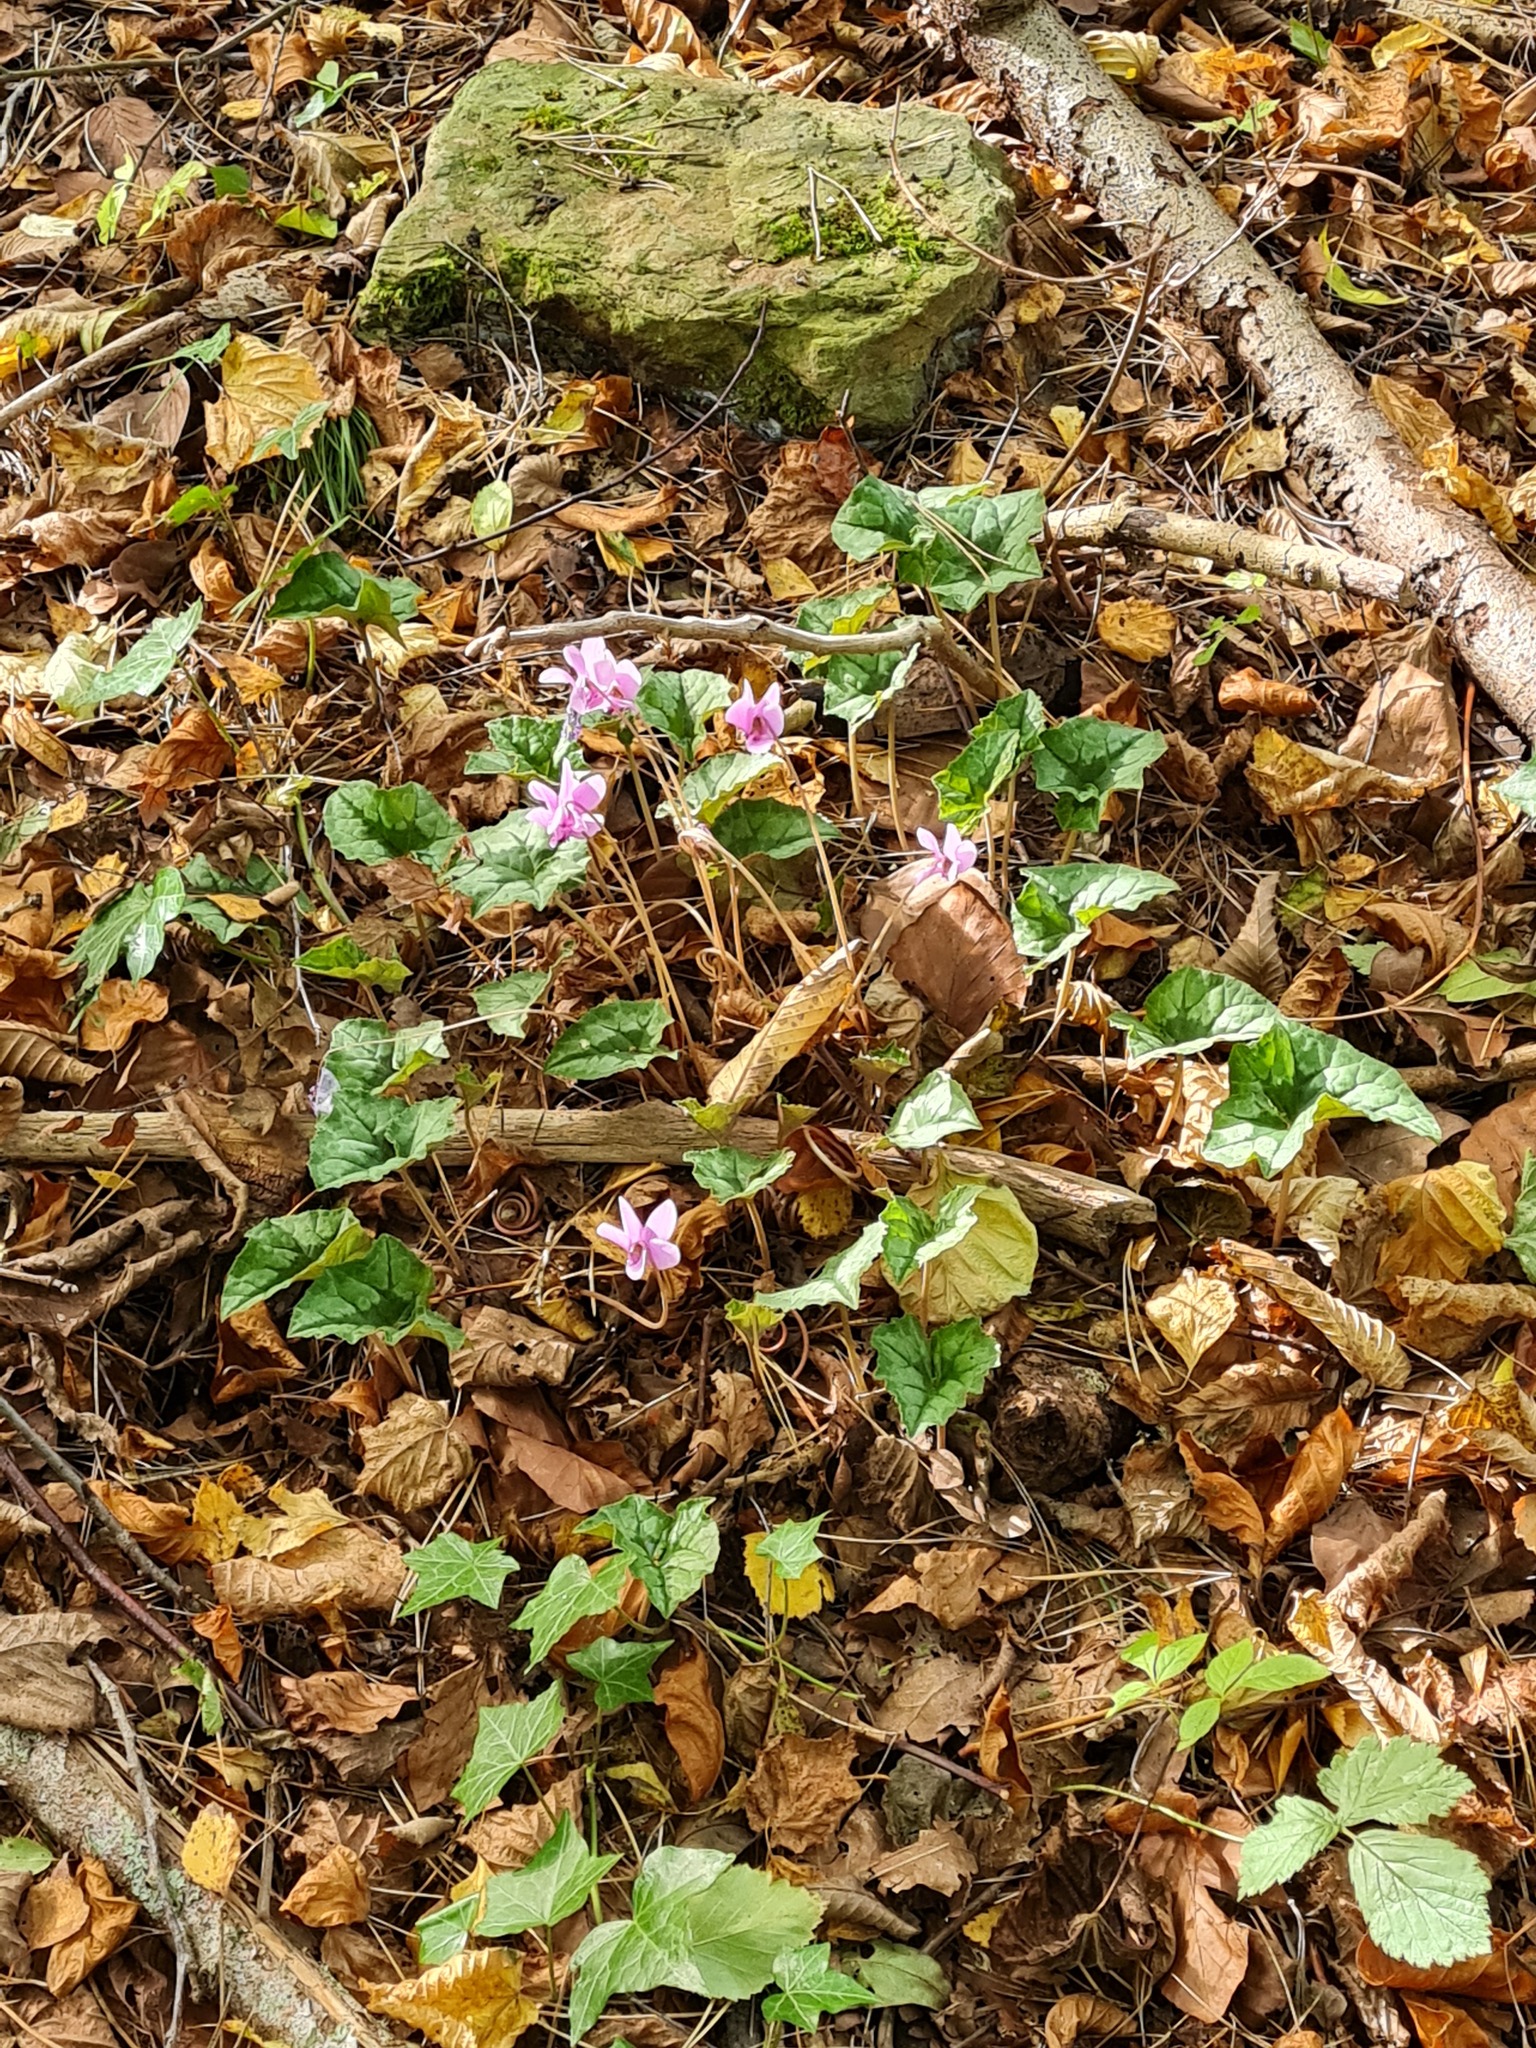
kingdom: Plantae
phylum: Tracheophyta
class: Magnoliopsida
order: Ericales
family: Primulaceae
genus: Cyclamen
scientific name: Cyclamen hederifolium
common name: Sowbread
